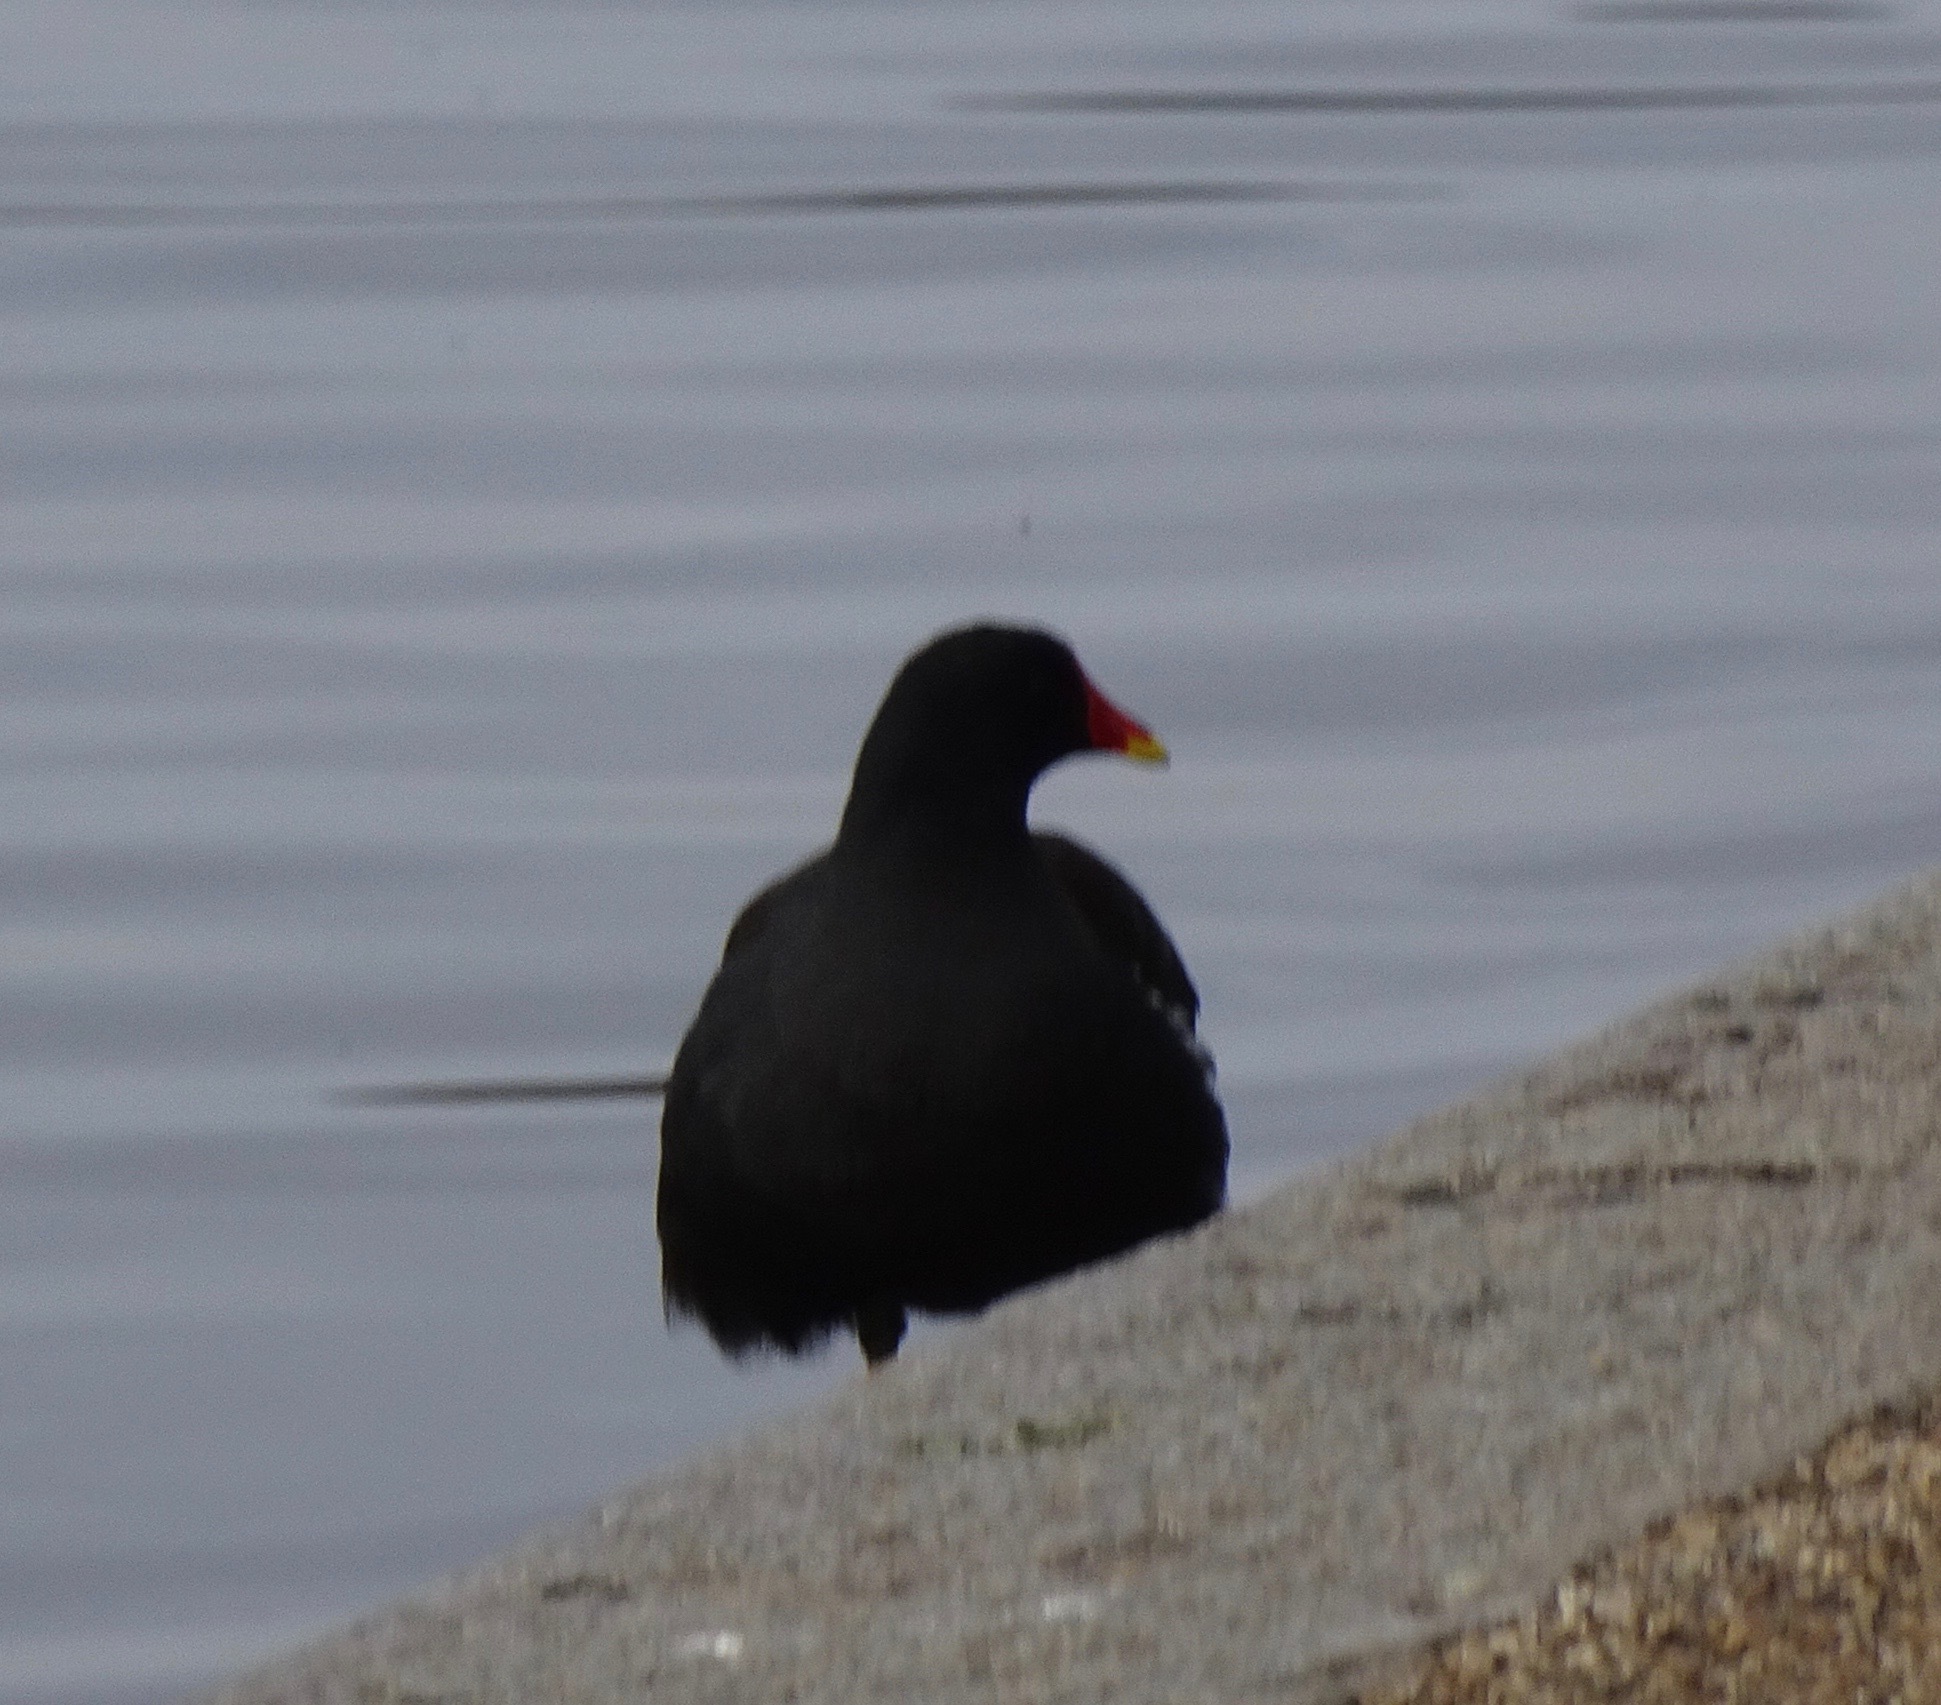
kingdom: Animalia
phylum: Chordata
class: Aves
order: Gruiformes
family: Rallidae
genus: Gallinula
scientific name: Gallinula chloropus
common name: Common moorhen
